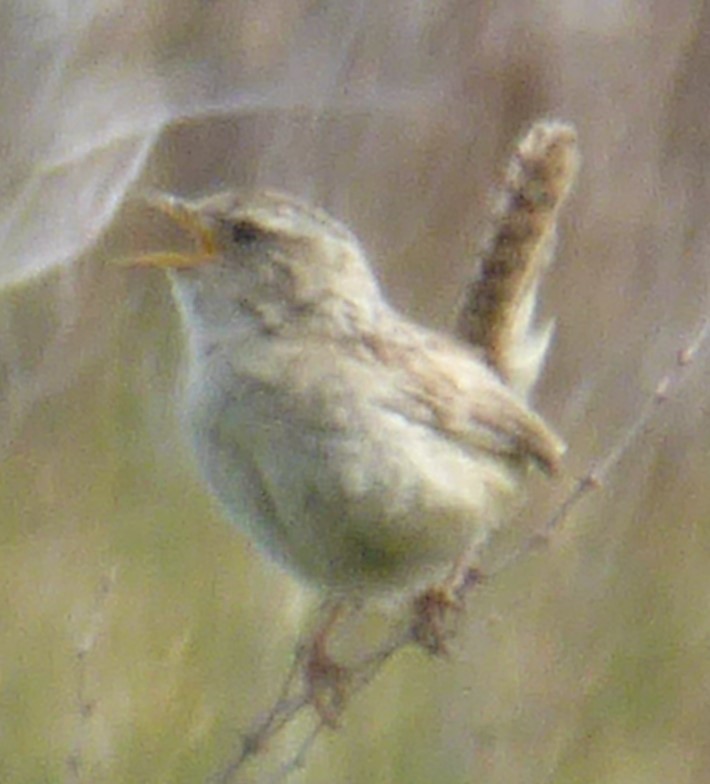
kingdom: Animalia
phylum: Chordata
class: Aves
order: Passeriformes
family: Troglodytidae
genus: Cistothorus
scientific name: Cistothorus platensis
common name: Sedge wren
